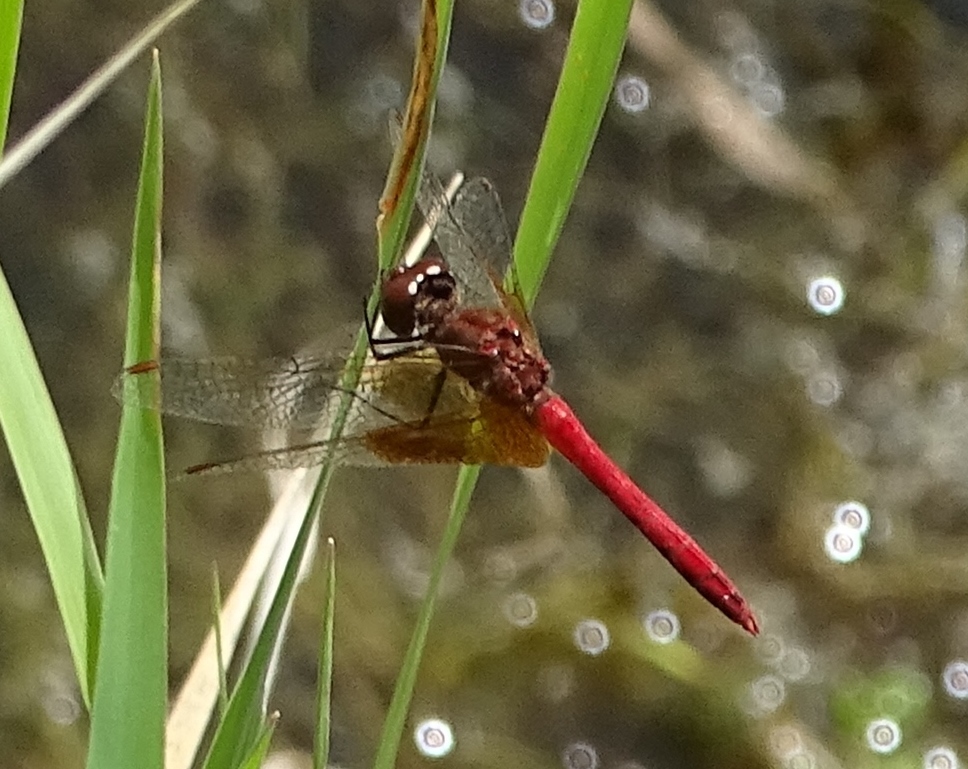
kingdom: Animalia
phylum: Arthropoda
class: Insecta
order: Odonata
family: Libellulidae
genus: Sympetrum
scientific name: Sympetrum semicinctum
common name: Band-winged meadowhawk
